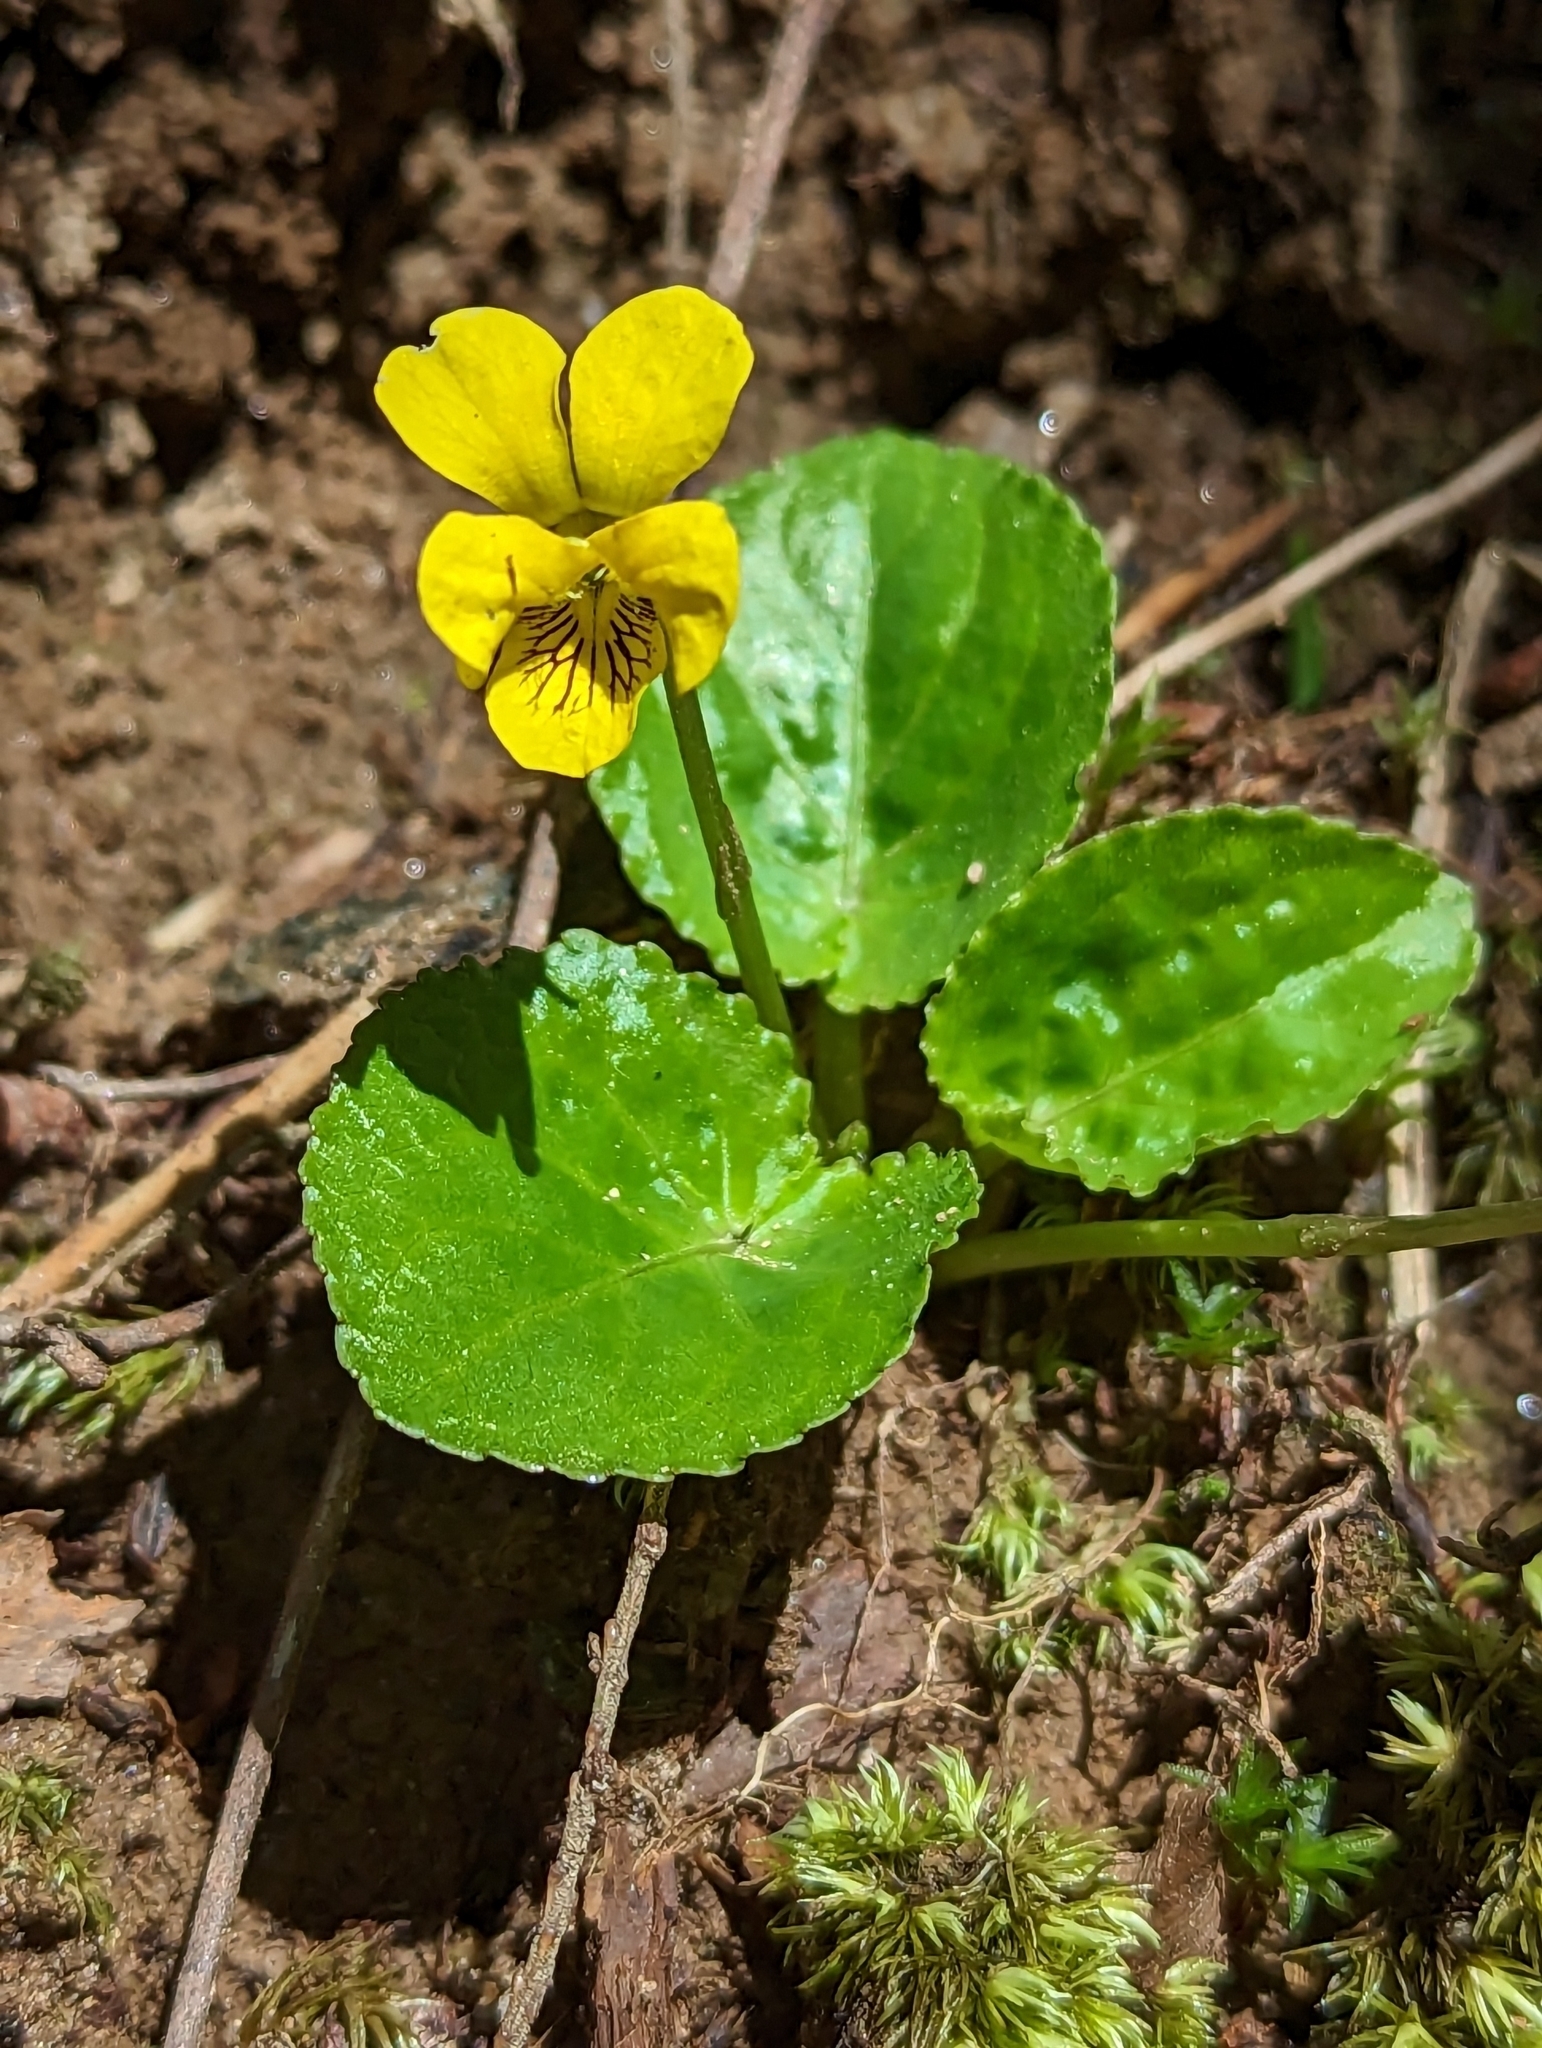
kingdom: Plantae
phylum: Tracheophyta
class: Magnoliopsida
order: Malpighiales
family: Violaceae
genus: Viola
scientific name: Viola rotundifolia
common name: Early yellow violet
